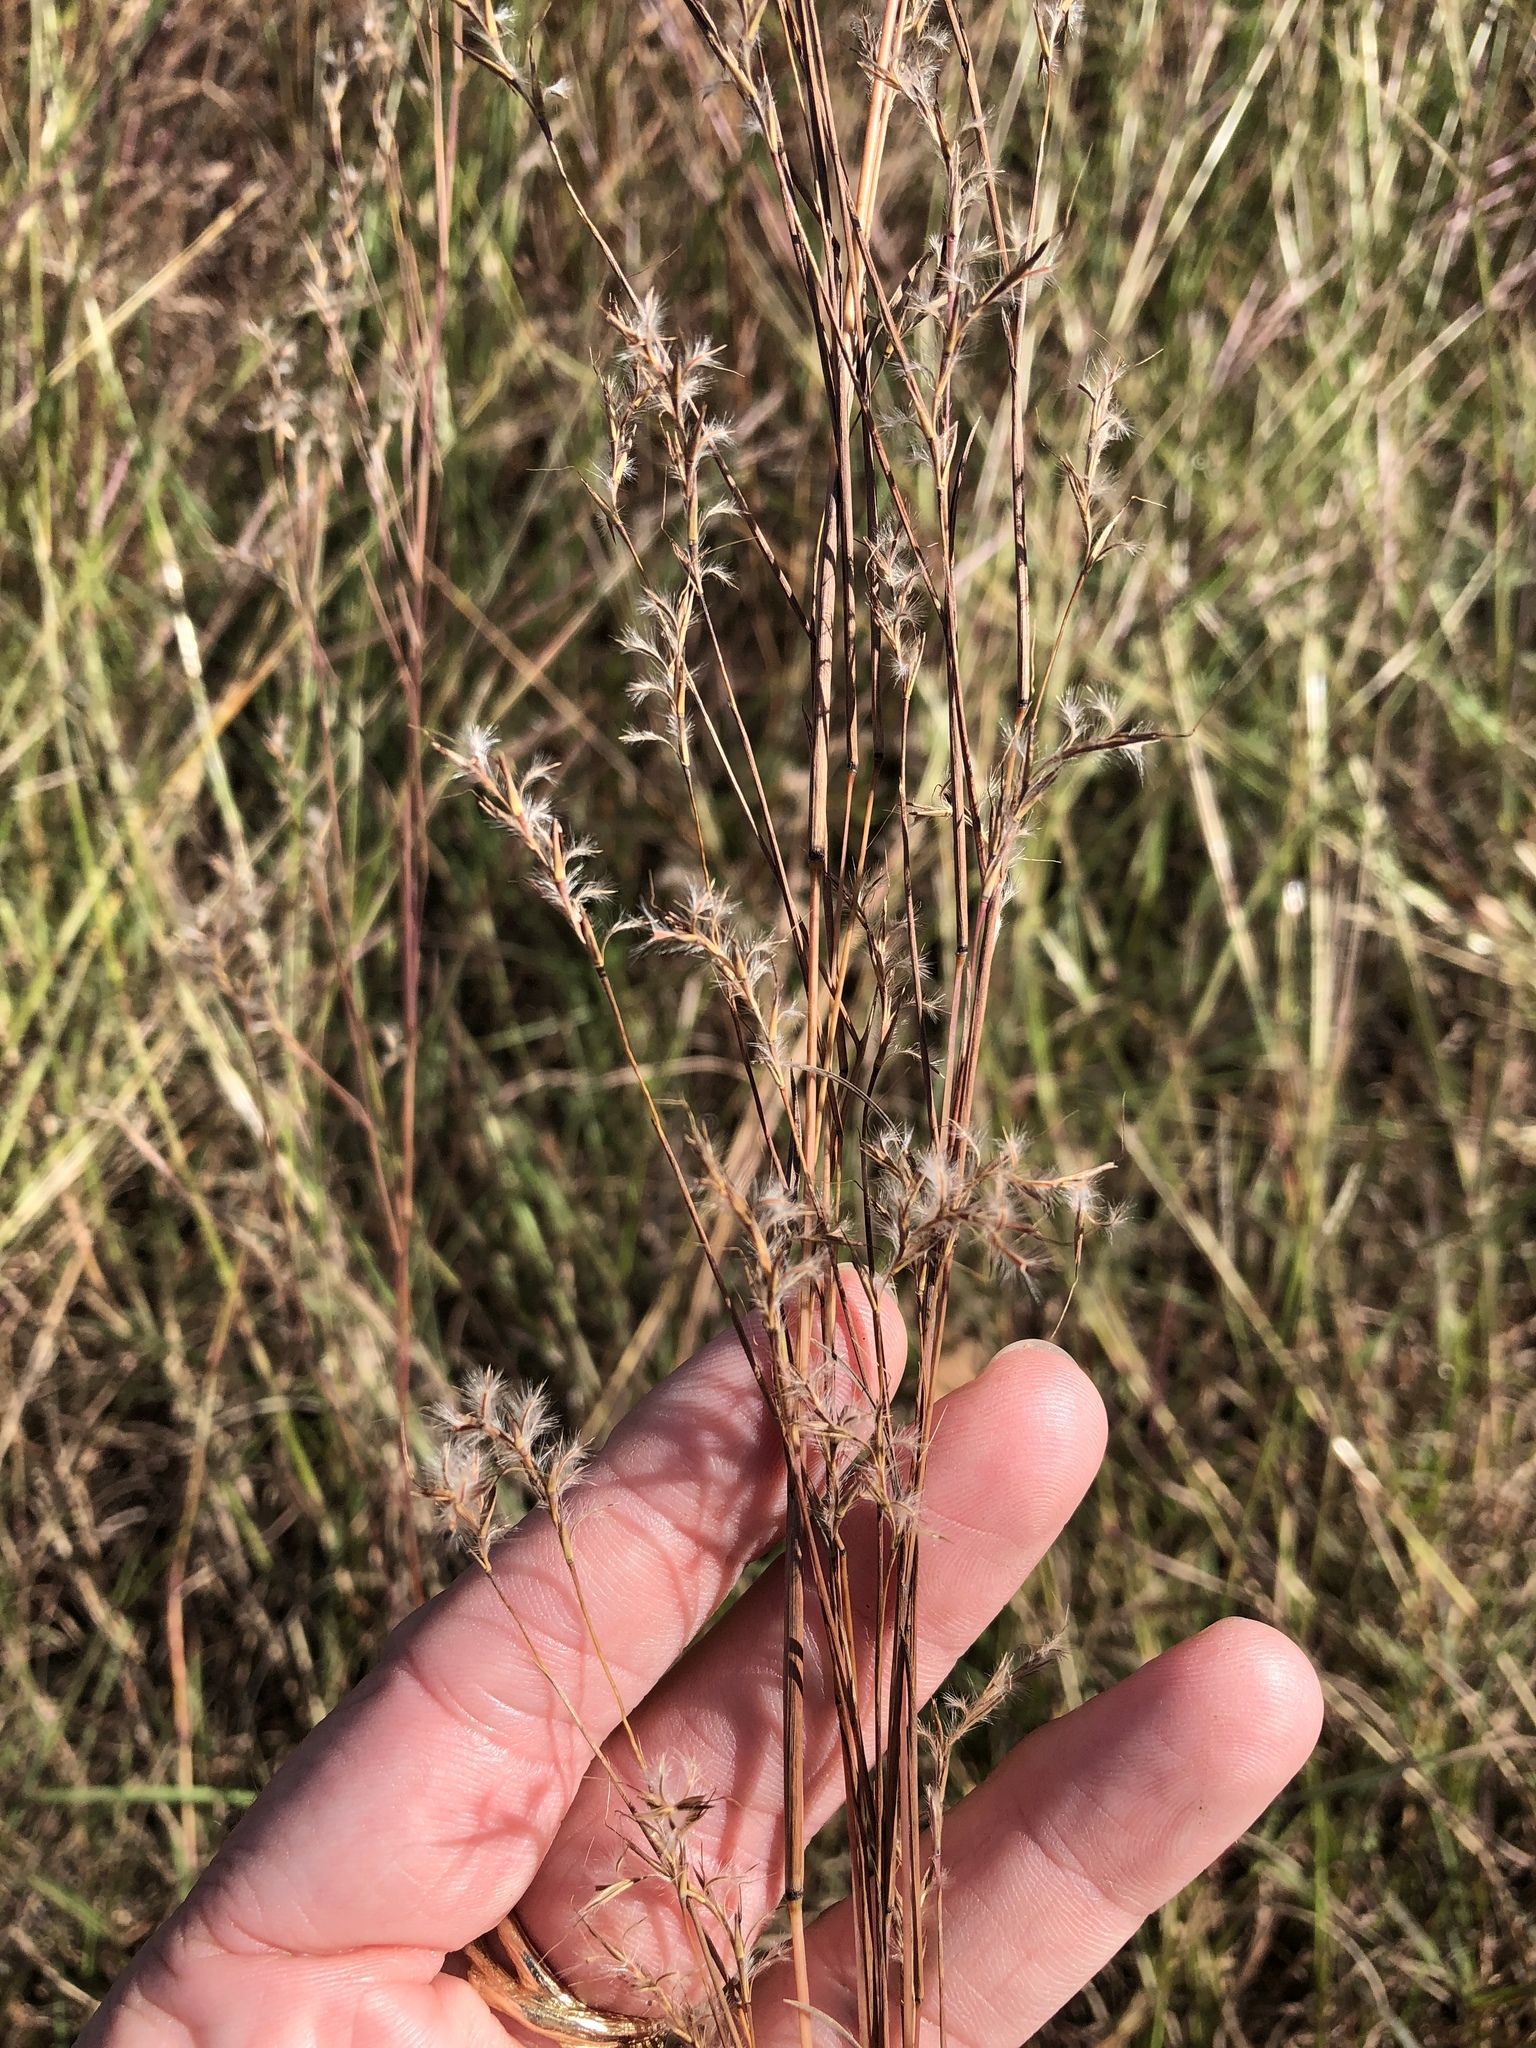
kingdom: Plantae
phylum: Tracheophyta
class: Liliopsida
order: Poales
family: Poaceae
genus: Schizachyrium
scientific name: Schizachyrium scoparium
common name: Little bluestem
